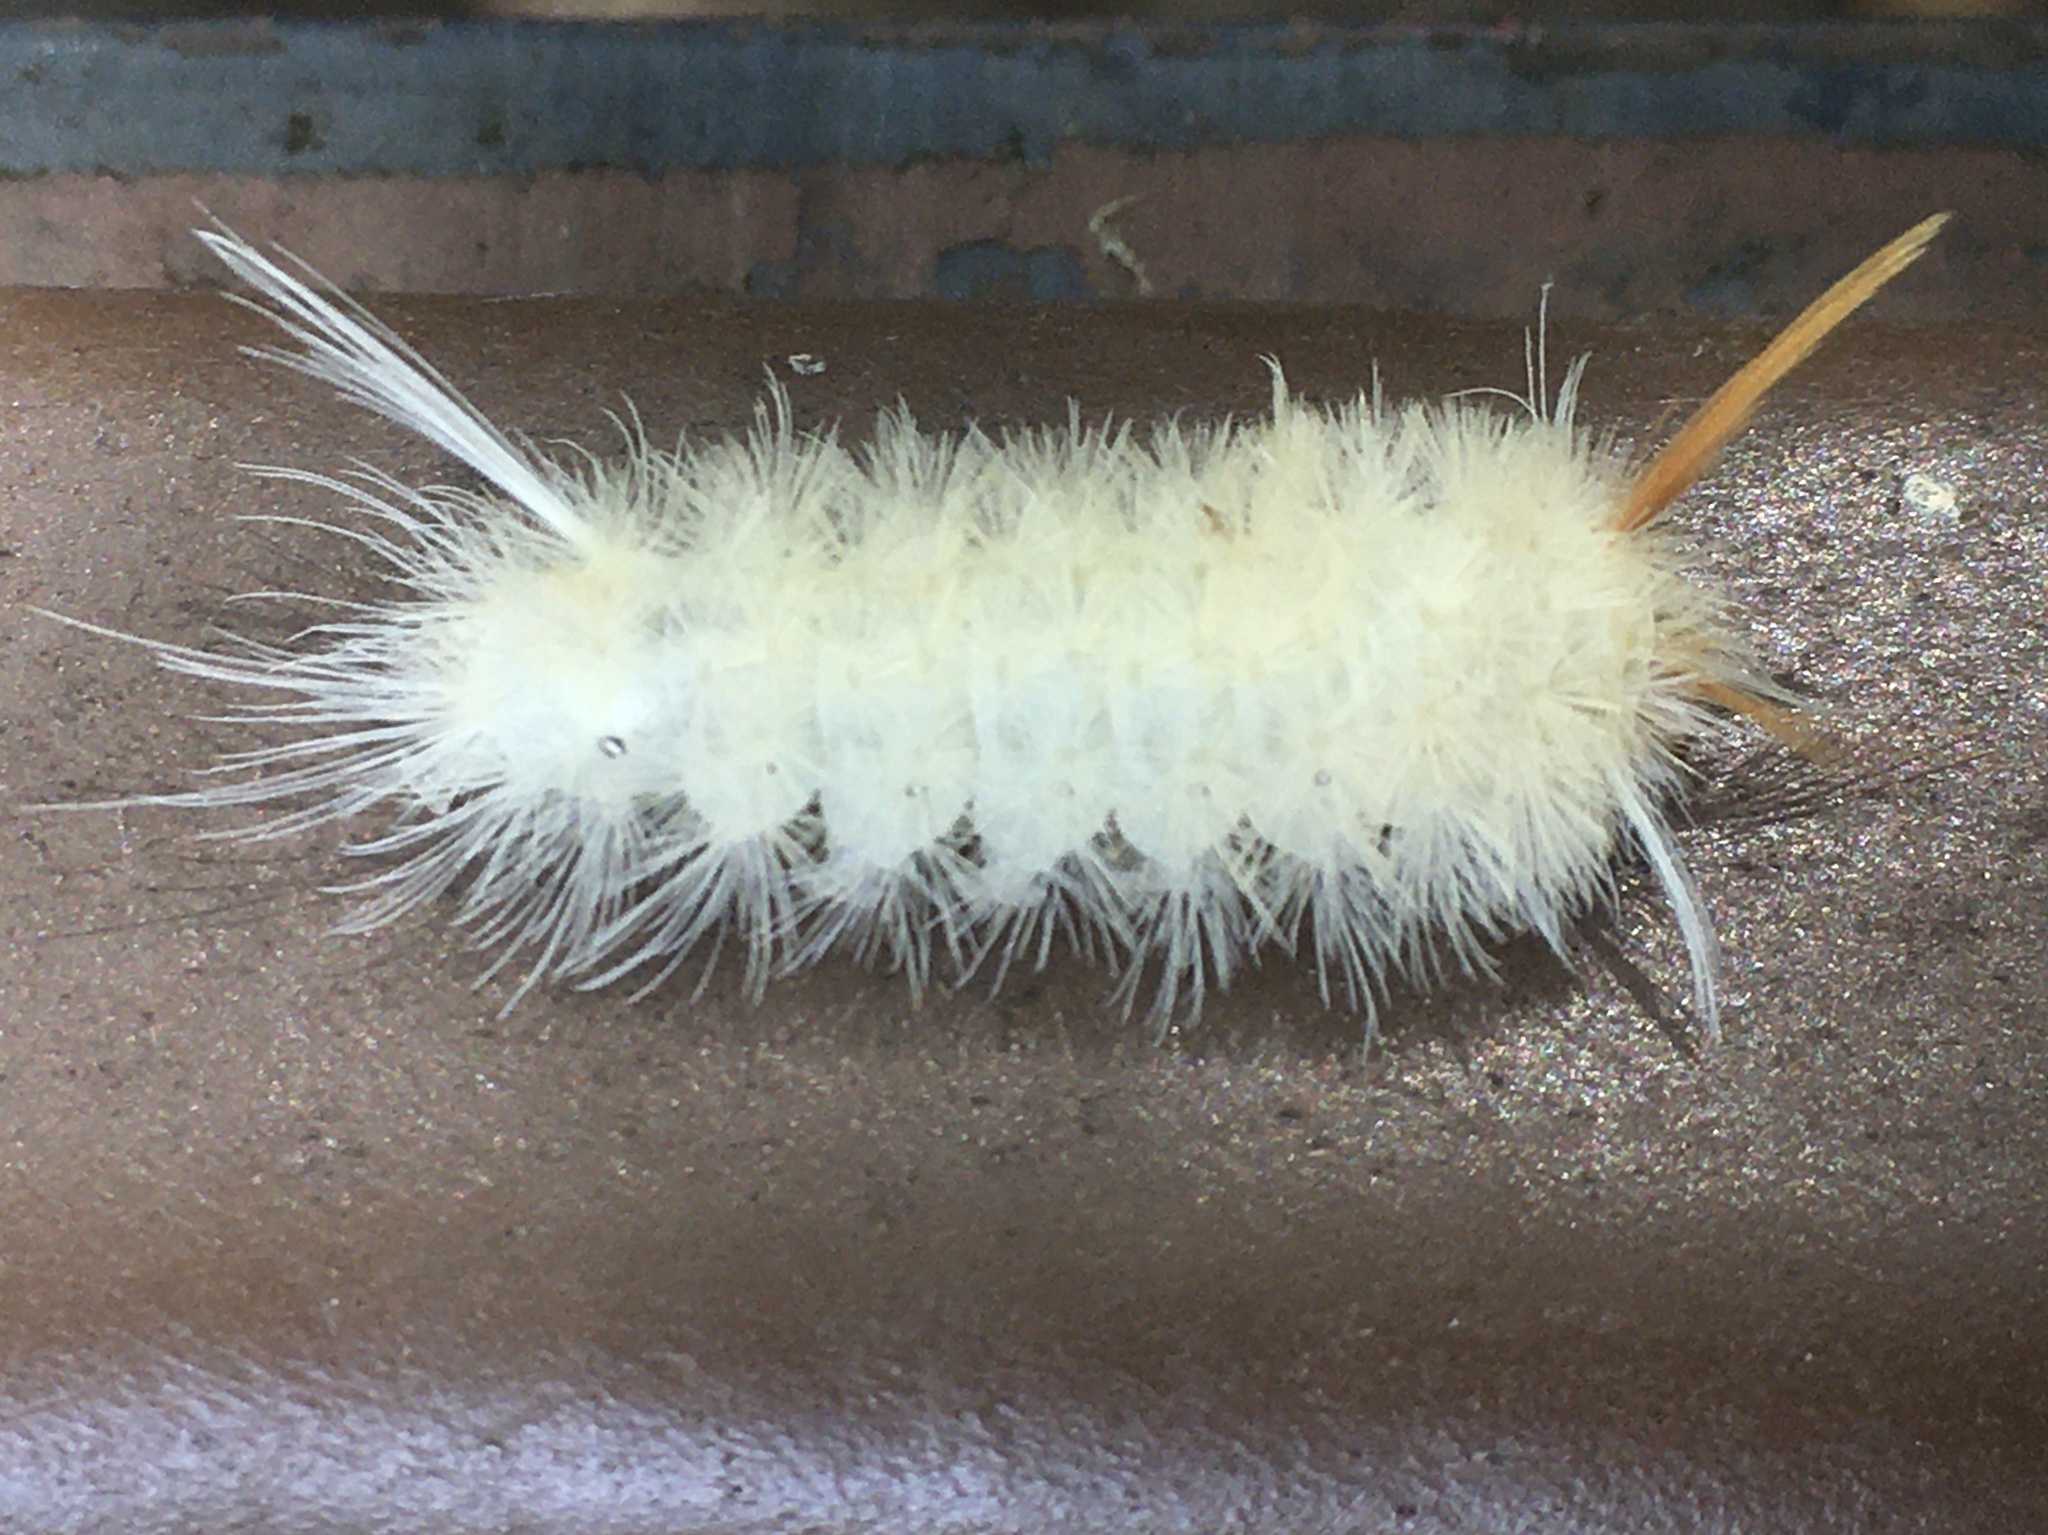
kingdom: Animalia
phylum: Arthropoda
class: Insecta
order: Lepidoptera
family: Erebidae
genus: Halysidota
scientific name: Halysidota harrisii
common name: Sycamore tussock moth
